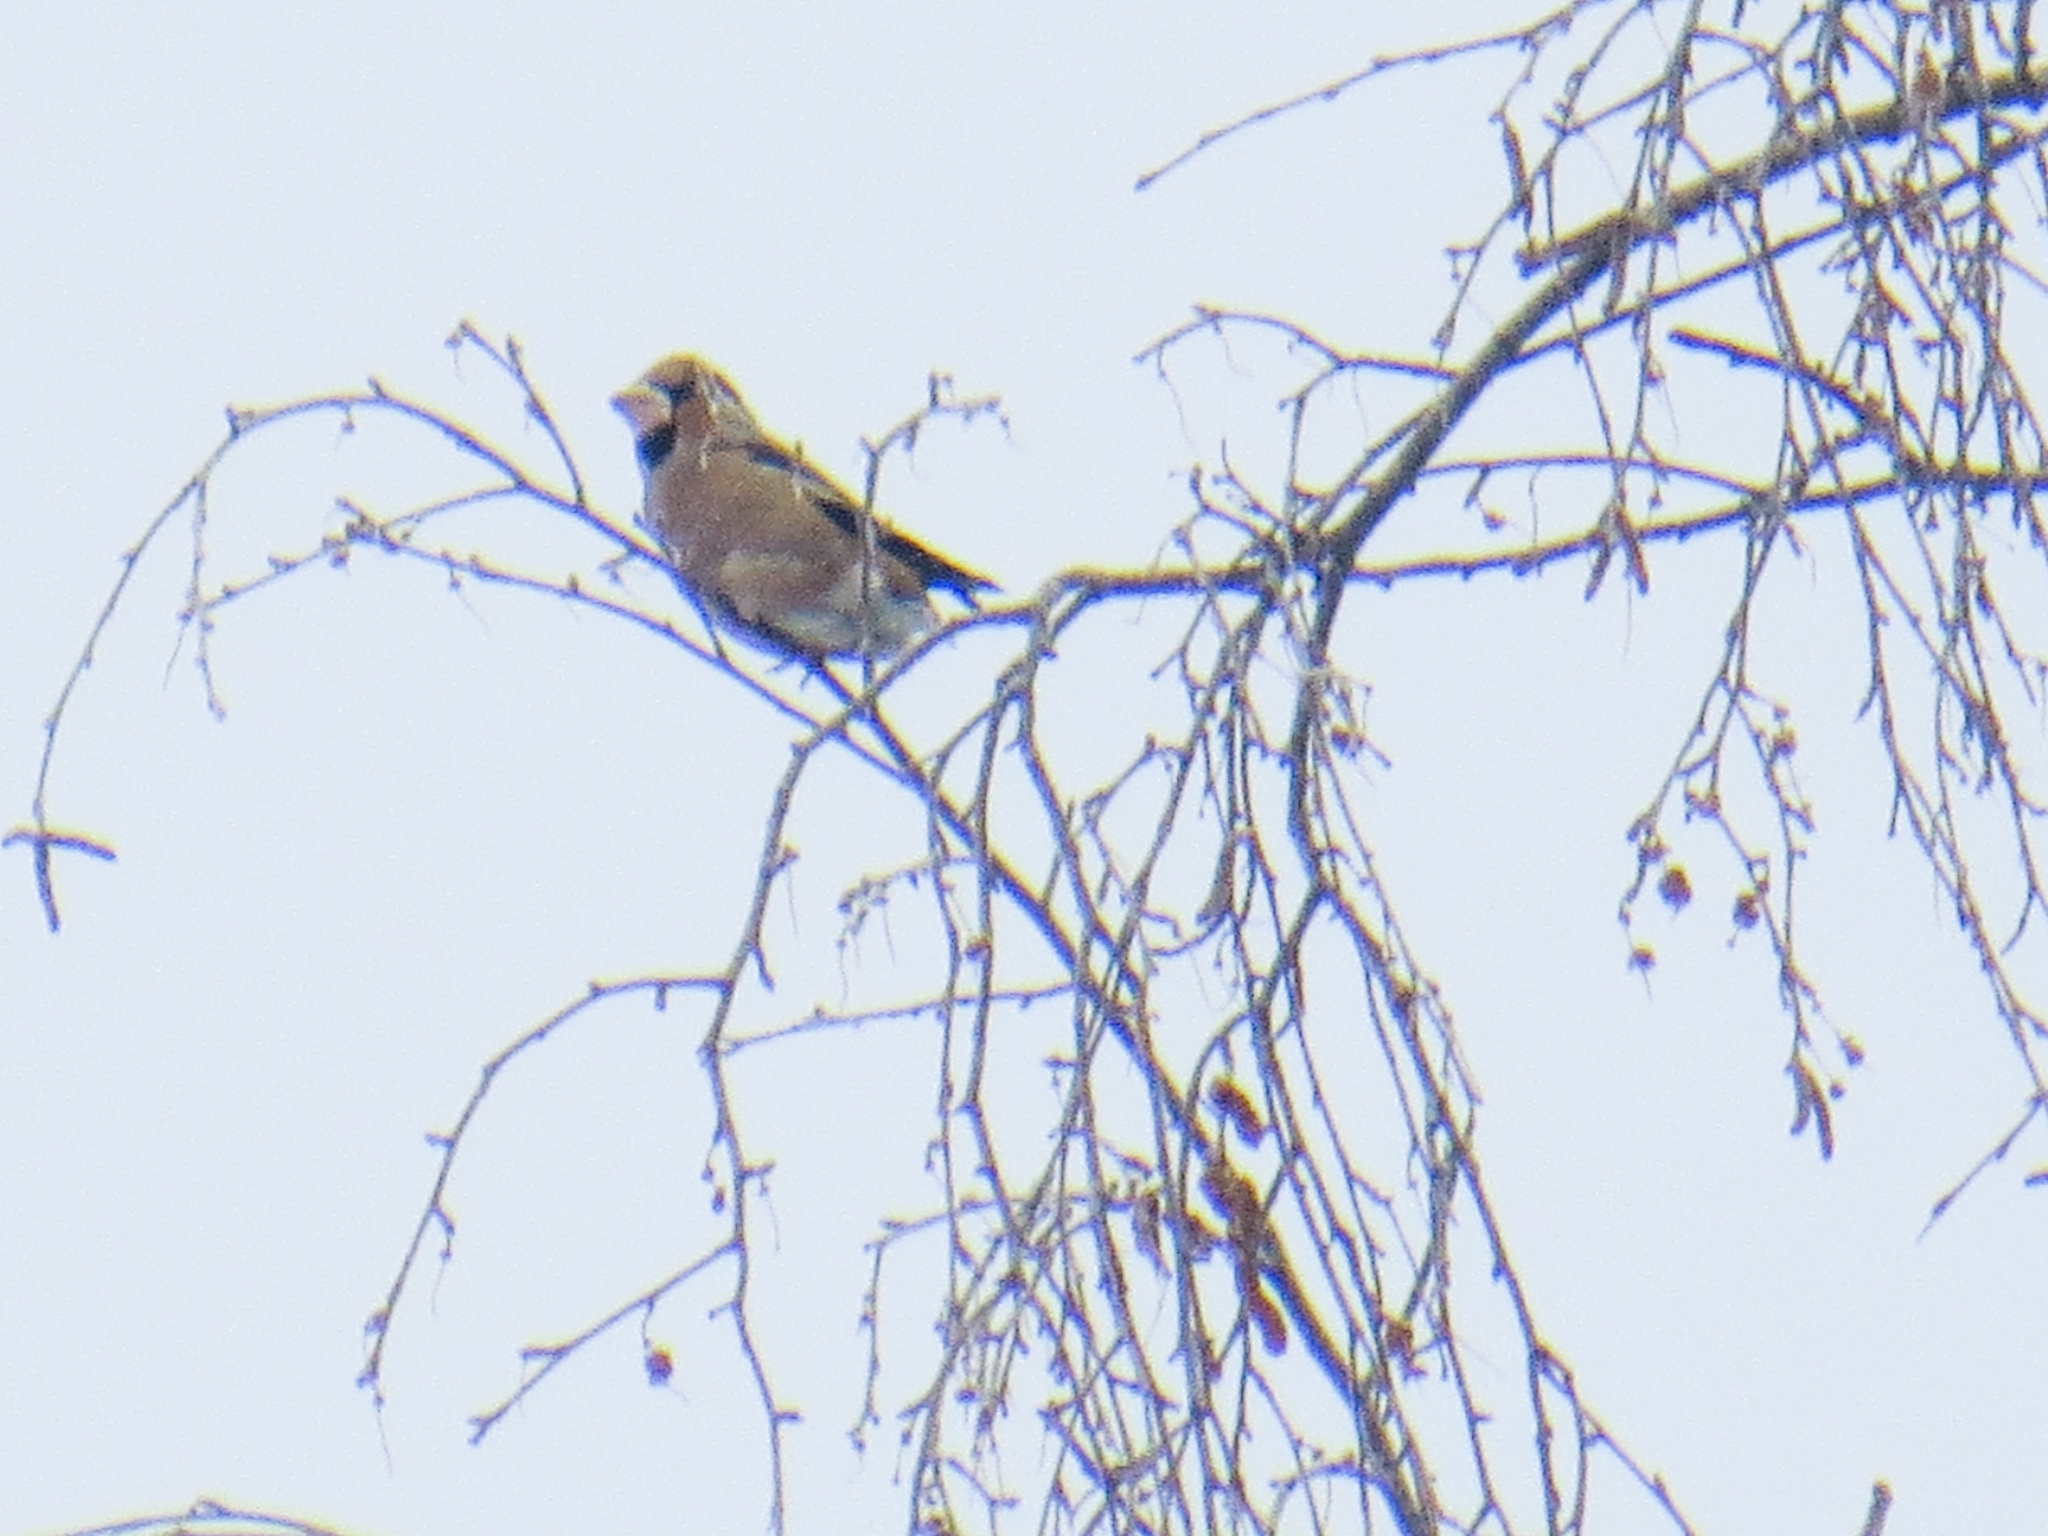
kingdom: Animalia
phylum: Chordata
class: Aves
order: Passeriformes
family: Fringillidae
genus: Coccothraustes
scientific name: Coccothraustes coccothraustes
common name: Hawfinch
